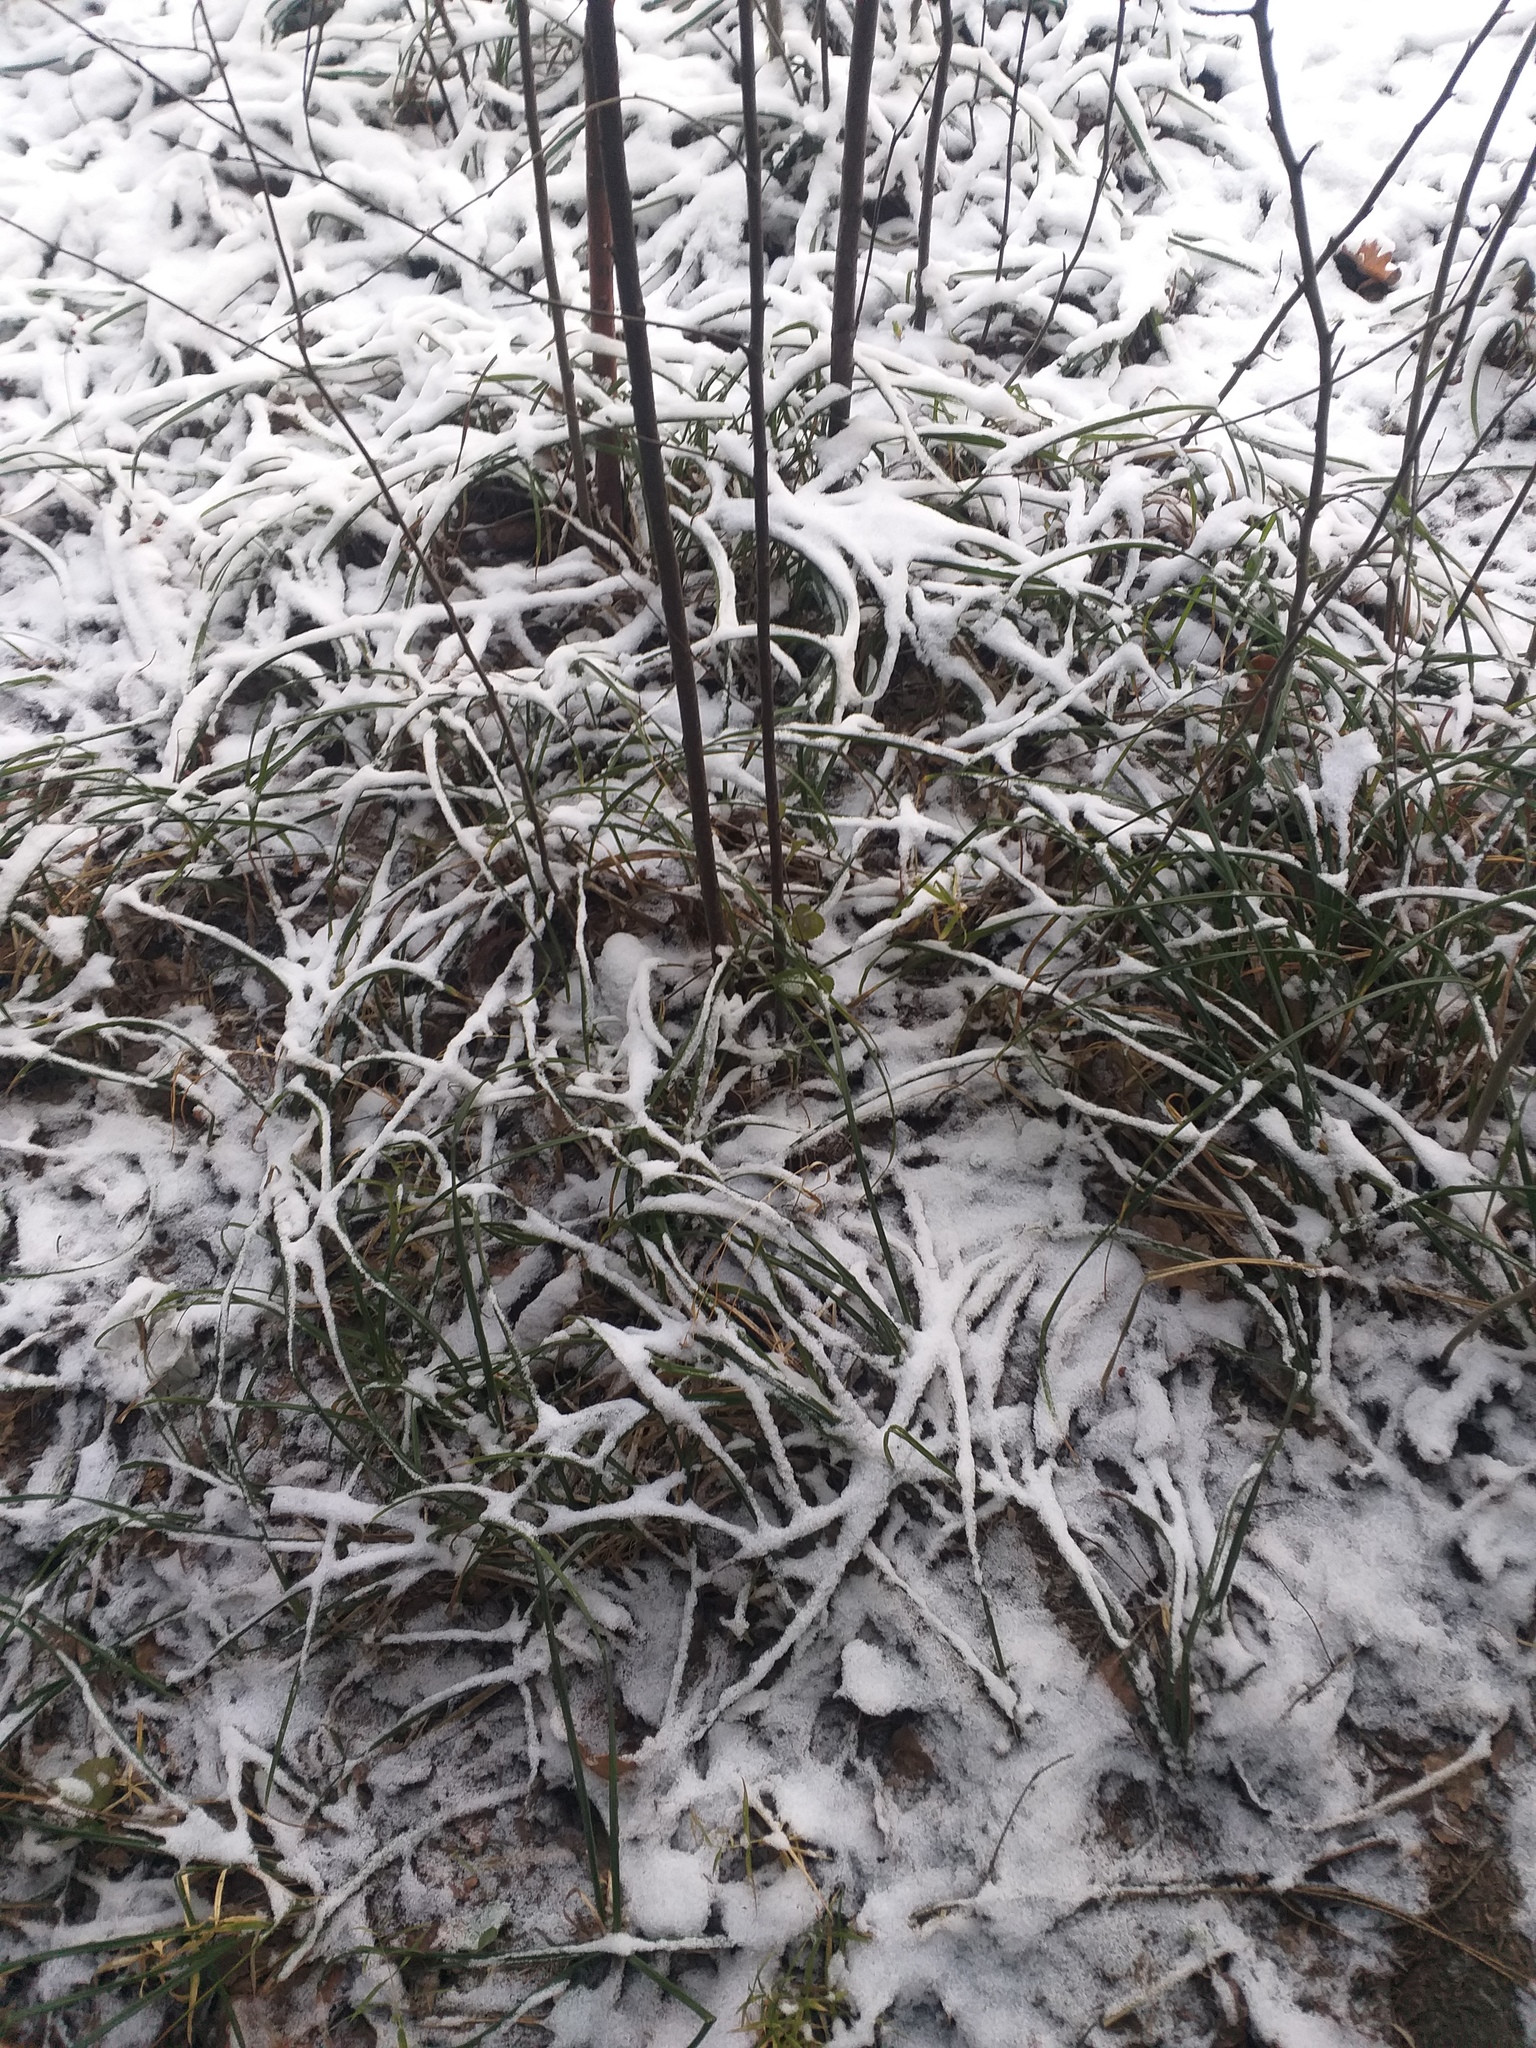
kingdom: Plantae
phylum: Tracheophyta
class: Liliopsida
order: Poales
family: Cyperaceae
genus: Carex
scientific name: Carex pilosa
